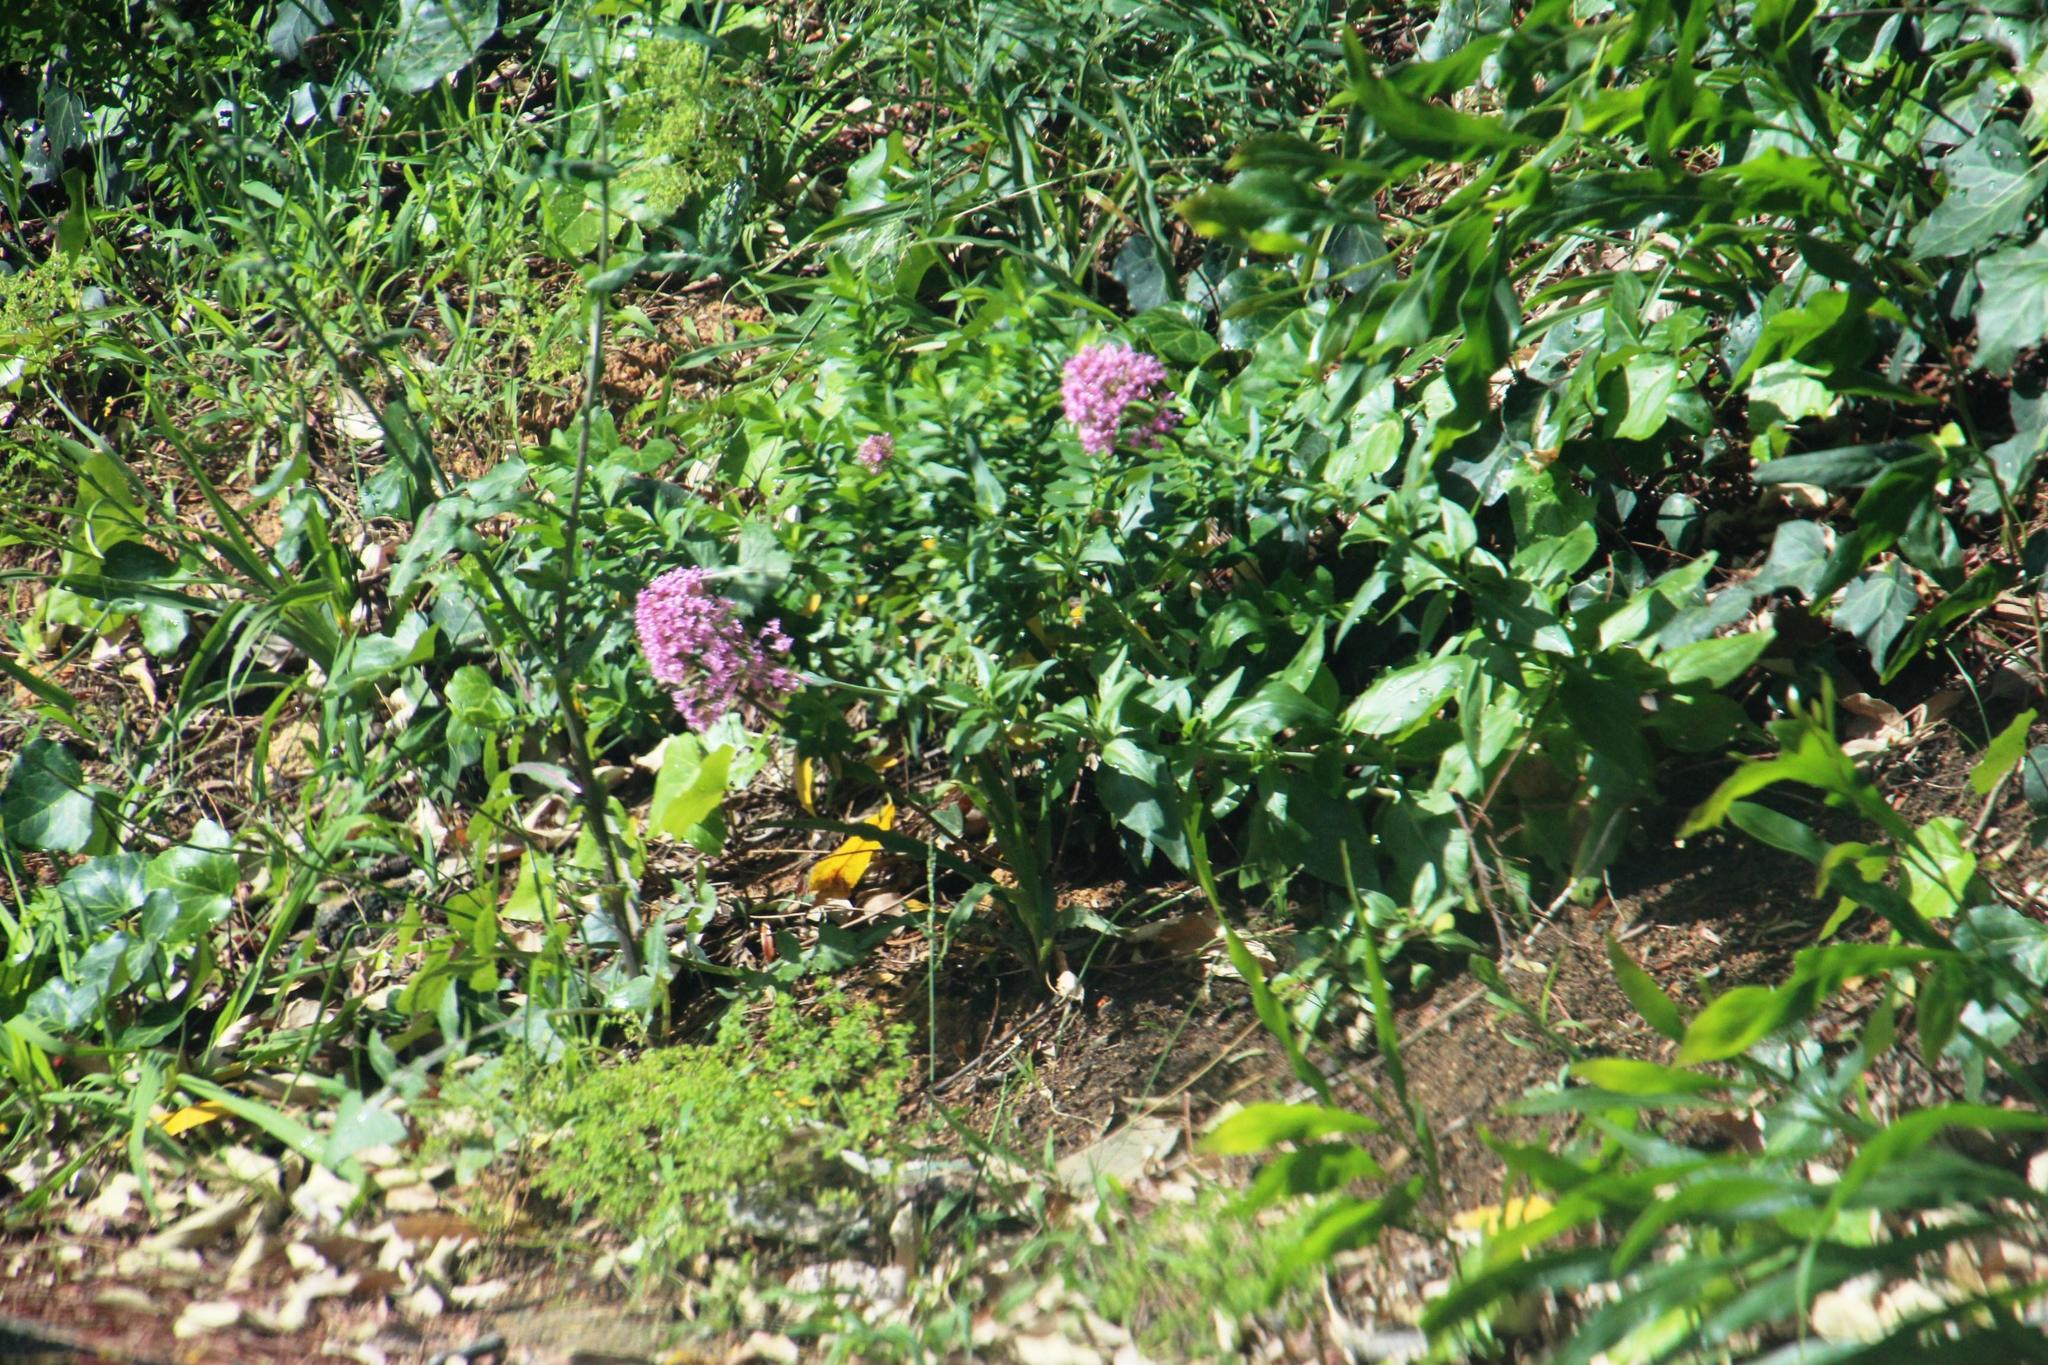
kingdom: Plantae
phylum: Tracheophyta
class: Magnoliopsida
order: Dipsacales
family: Caprifoliaceae
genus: Centranthus
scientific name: Centranthus ruber
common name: Red valerian
